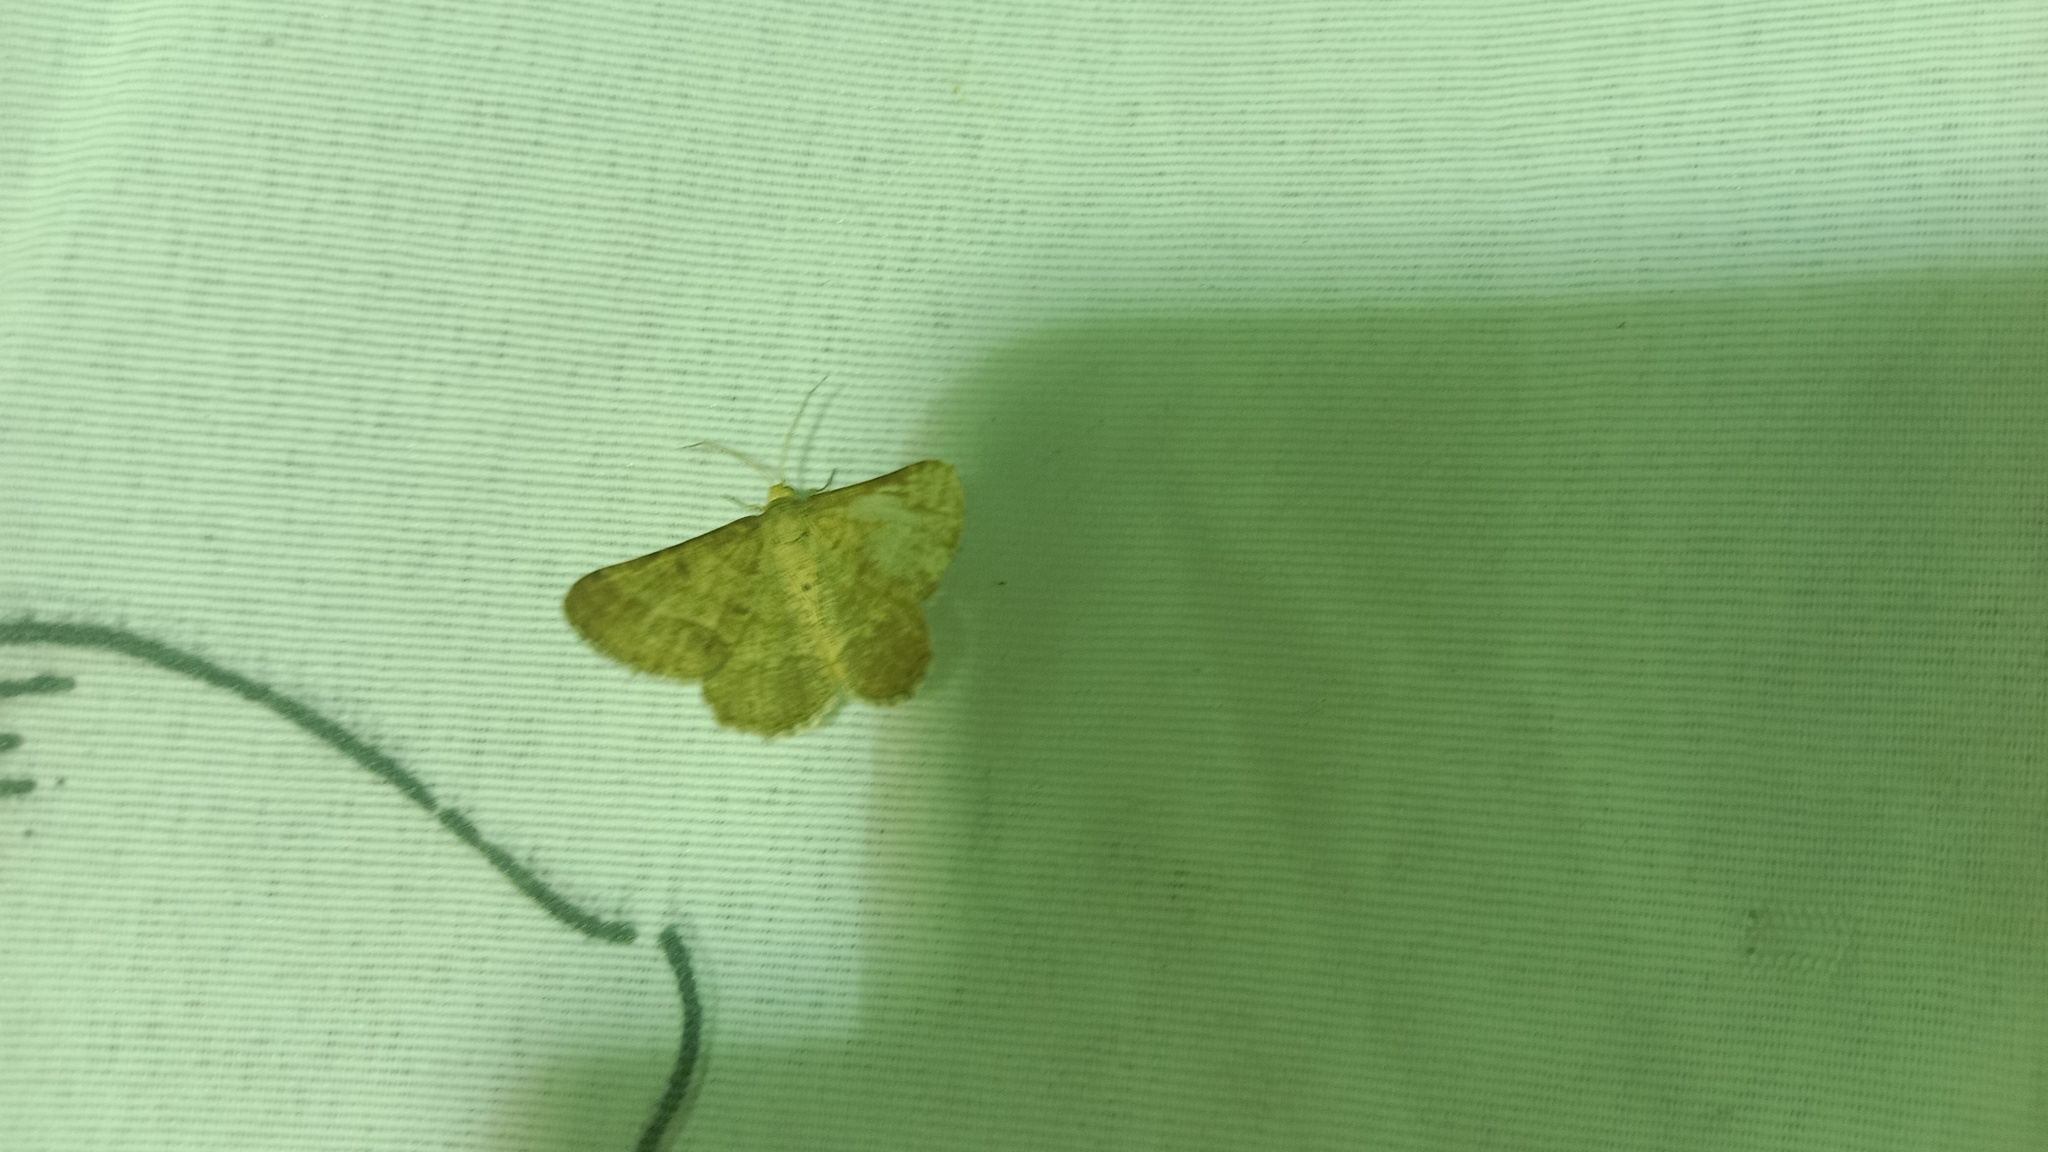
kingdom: Animalia
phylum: Arthropoda
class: Insecta
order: Lepidoptera
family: Geometridae
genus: Tephrina
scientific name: Tephrina murinaria
